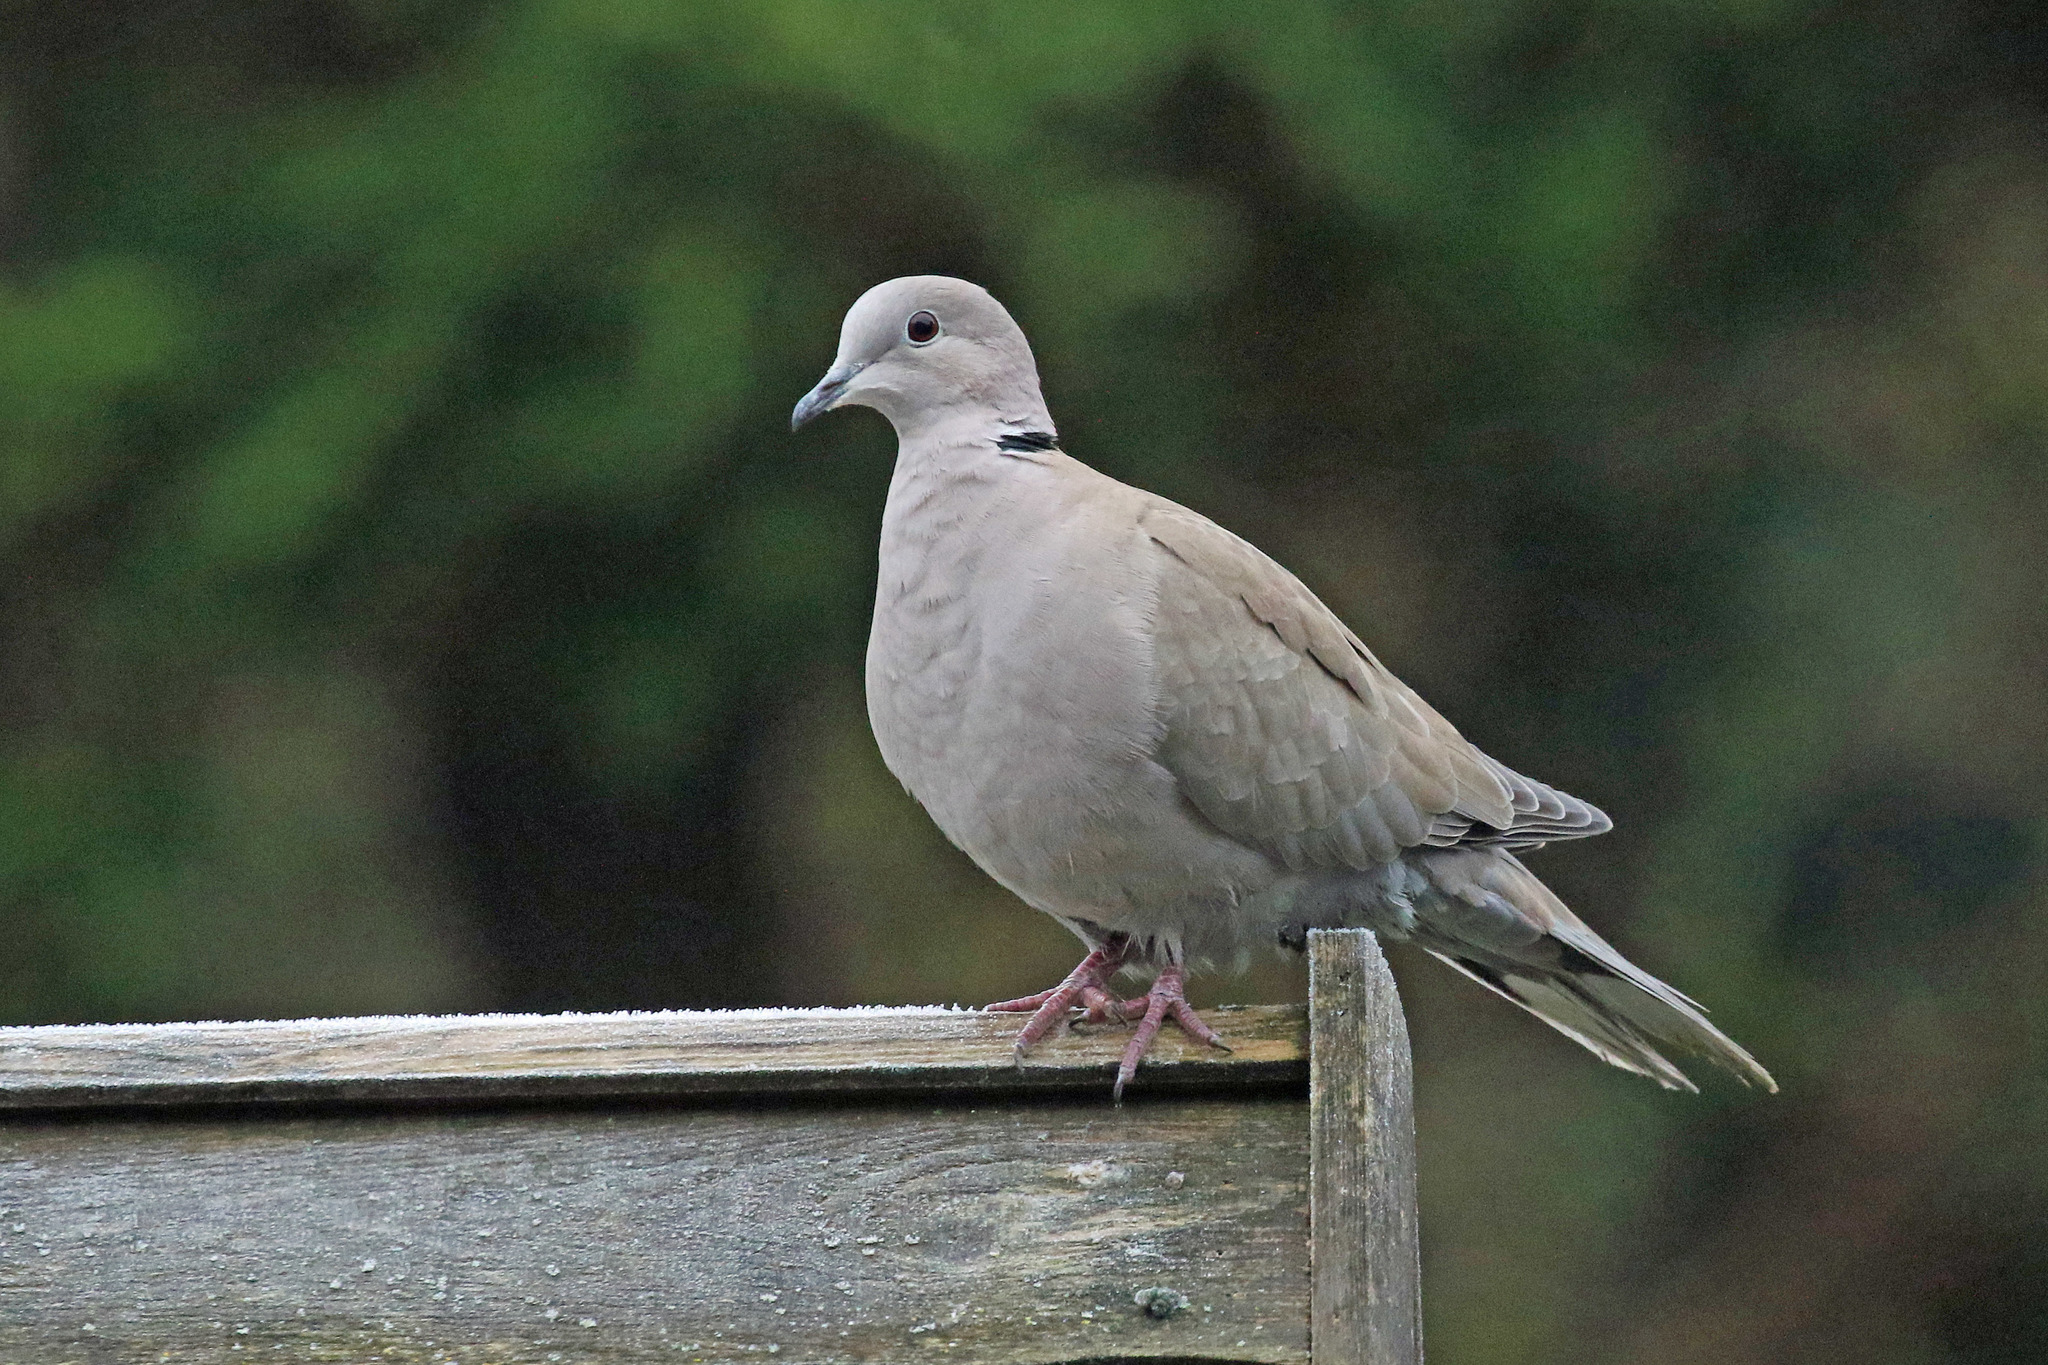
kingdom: Animalia
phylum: Chordata
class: Aves
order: Columbiformes
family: Columbidae
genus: Streptopelia
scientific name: Streptopelia decaocto
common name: Eurasian collared dove
